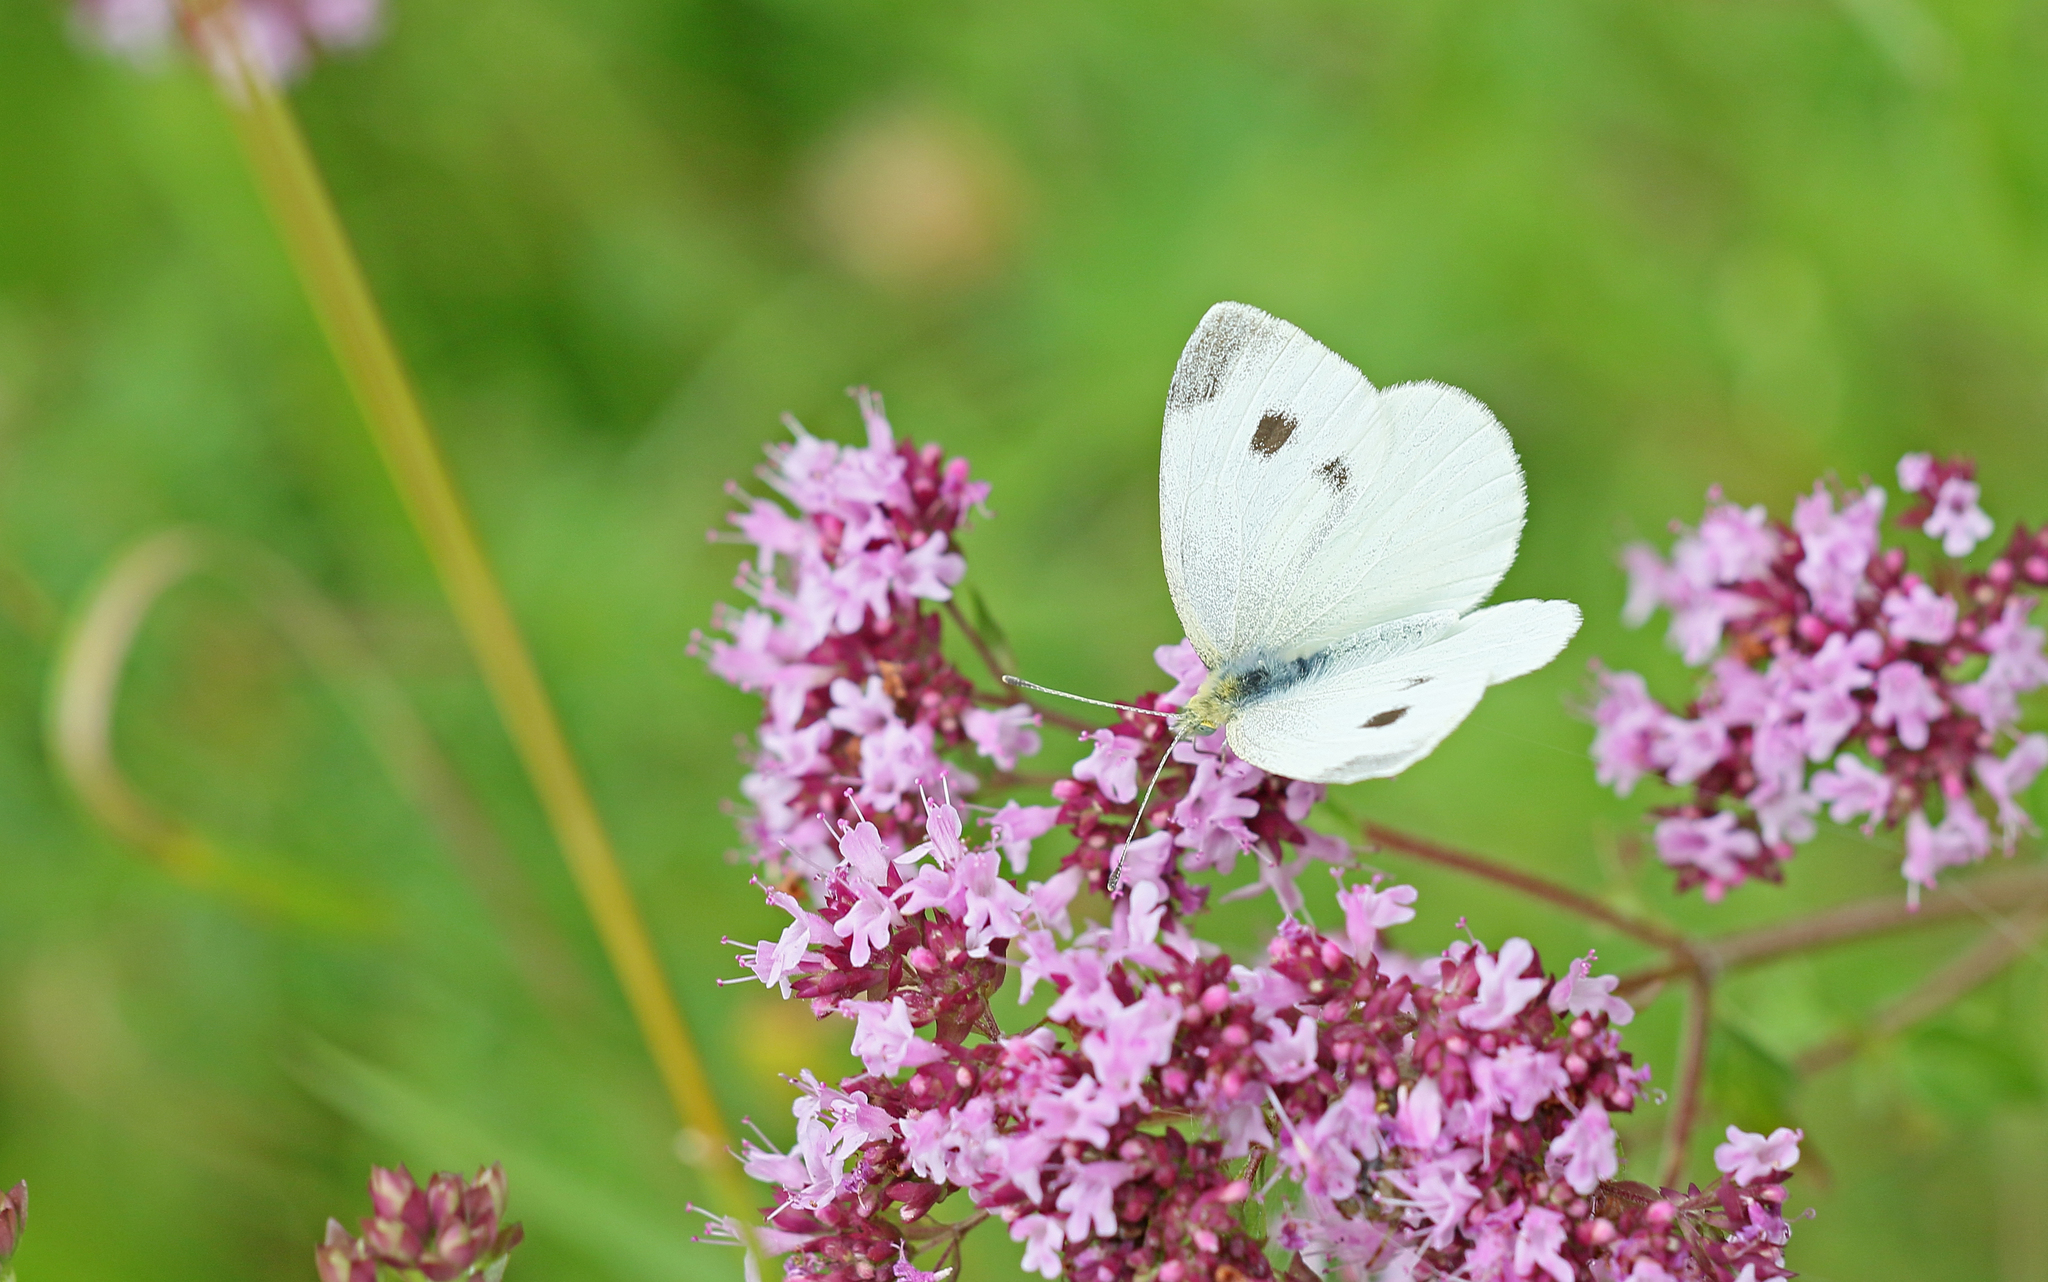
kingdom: Animalia
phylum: Arthropoda
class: Insecta
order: Lepidoptera
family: Pieridae
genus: Pieris
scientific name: Pieris mannii
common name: Southern small white
